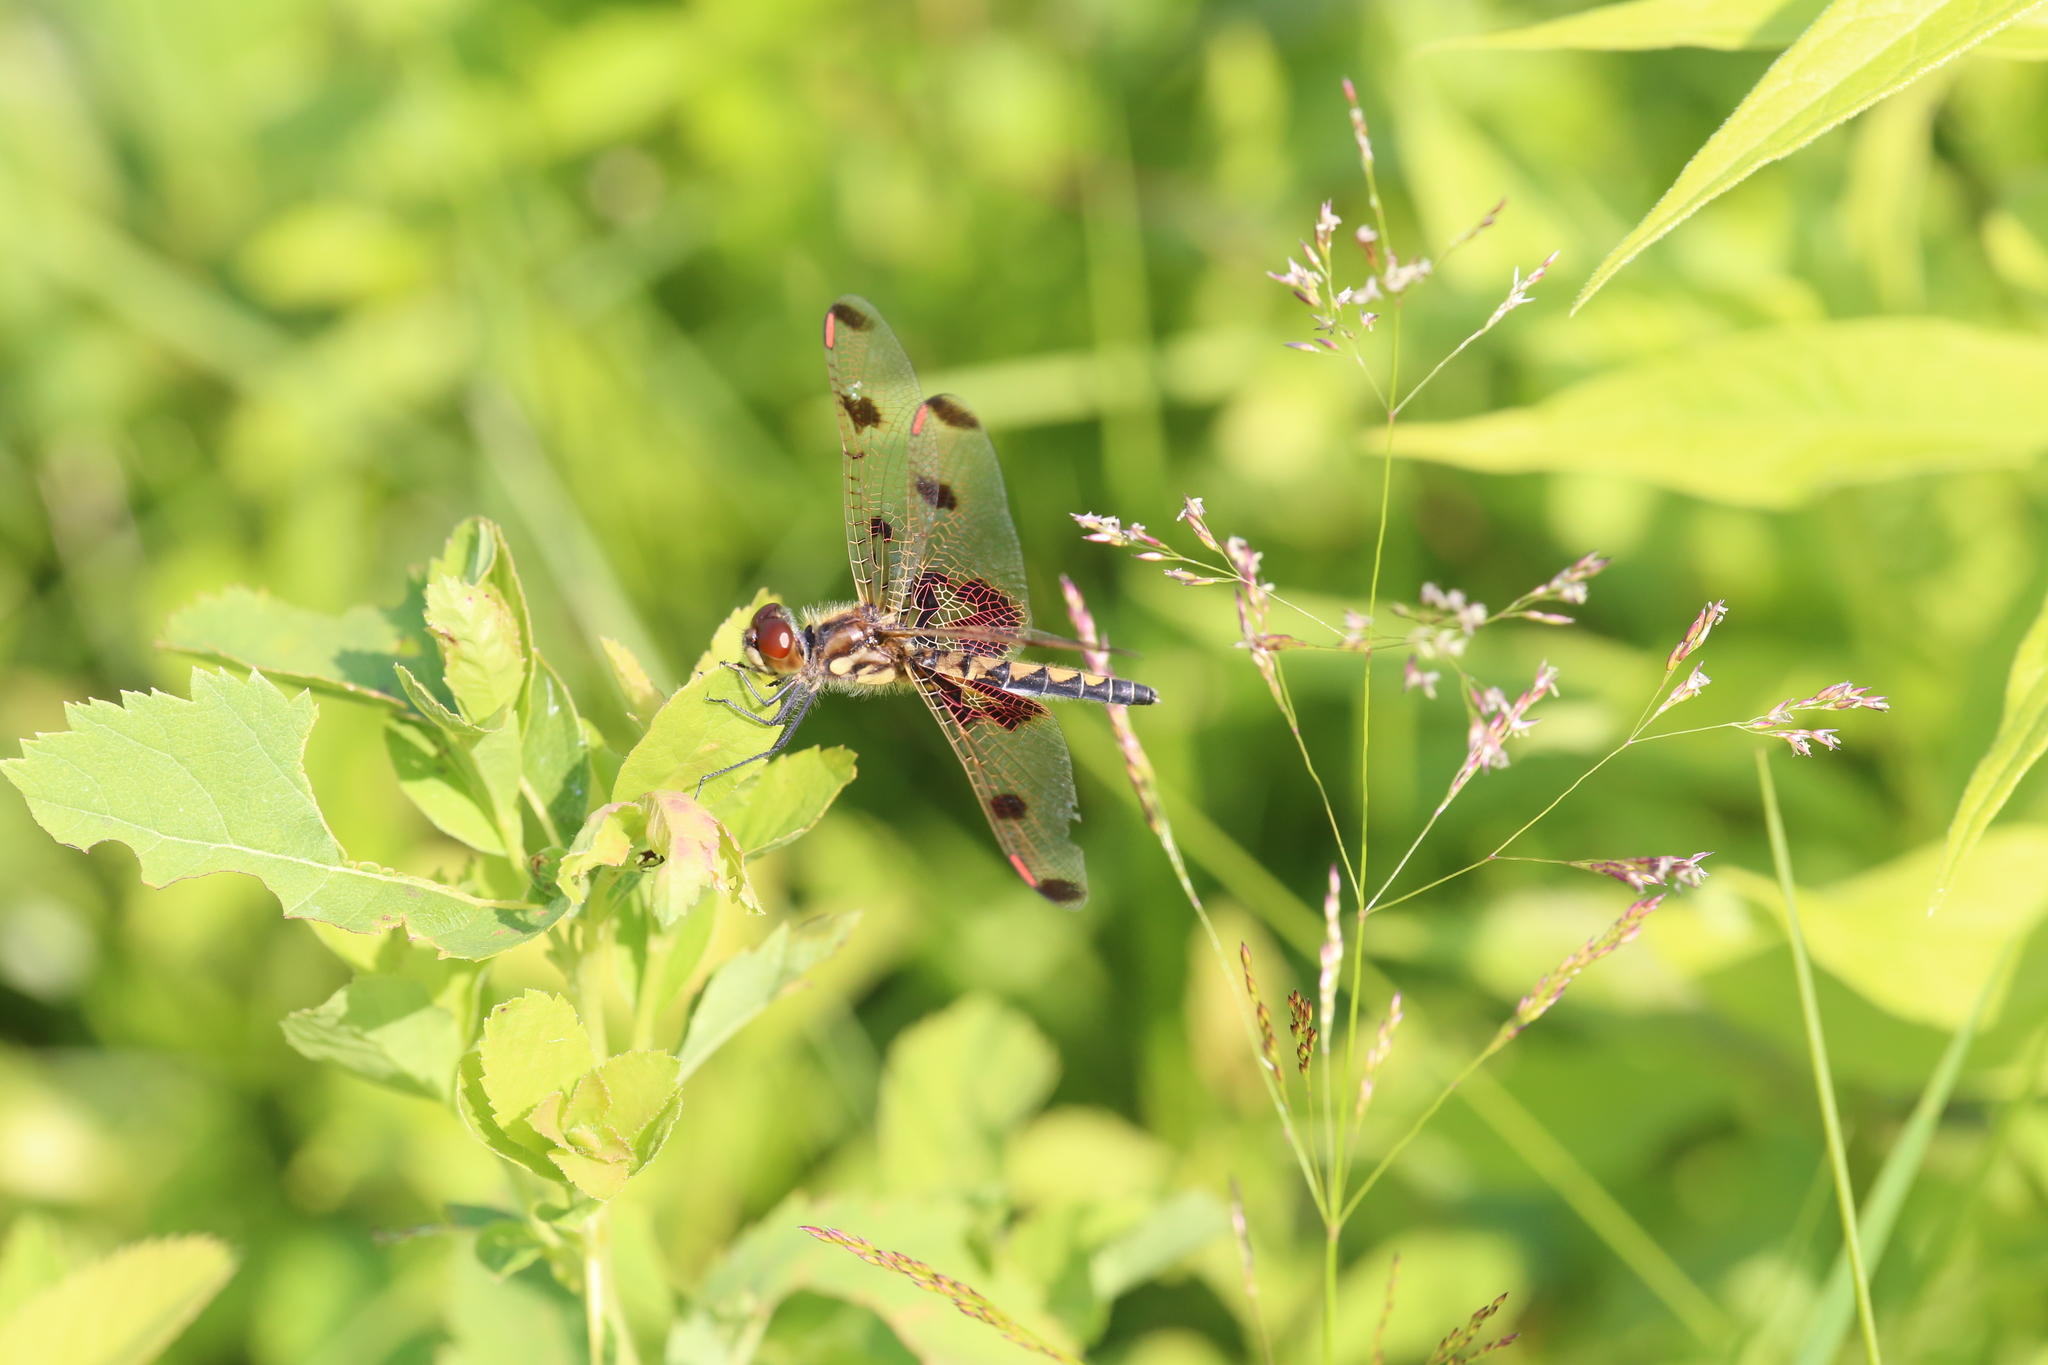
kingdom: Animalia
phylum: Arthropoda
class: Insecta
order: Odonata
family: Libellulidae
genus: Celithemis
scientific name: Celithemis elisa
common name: Calico pennant
